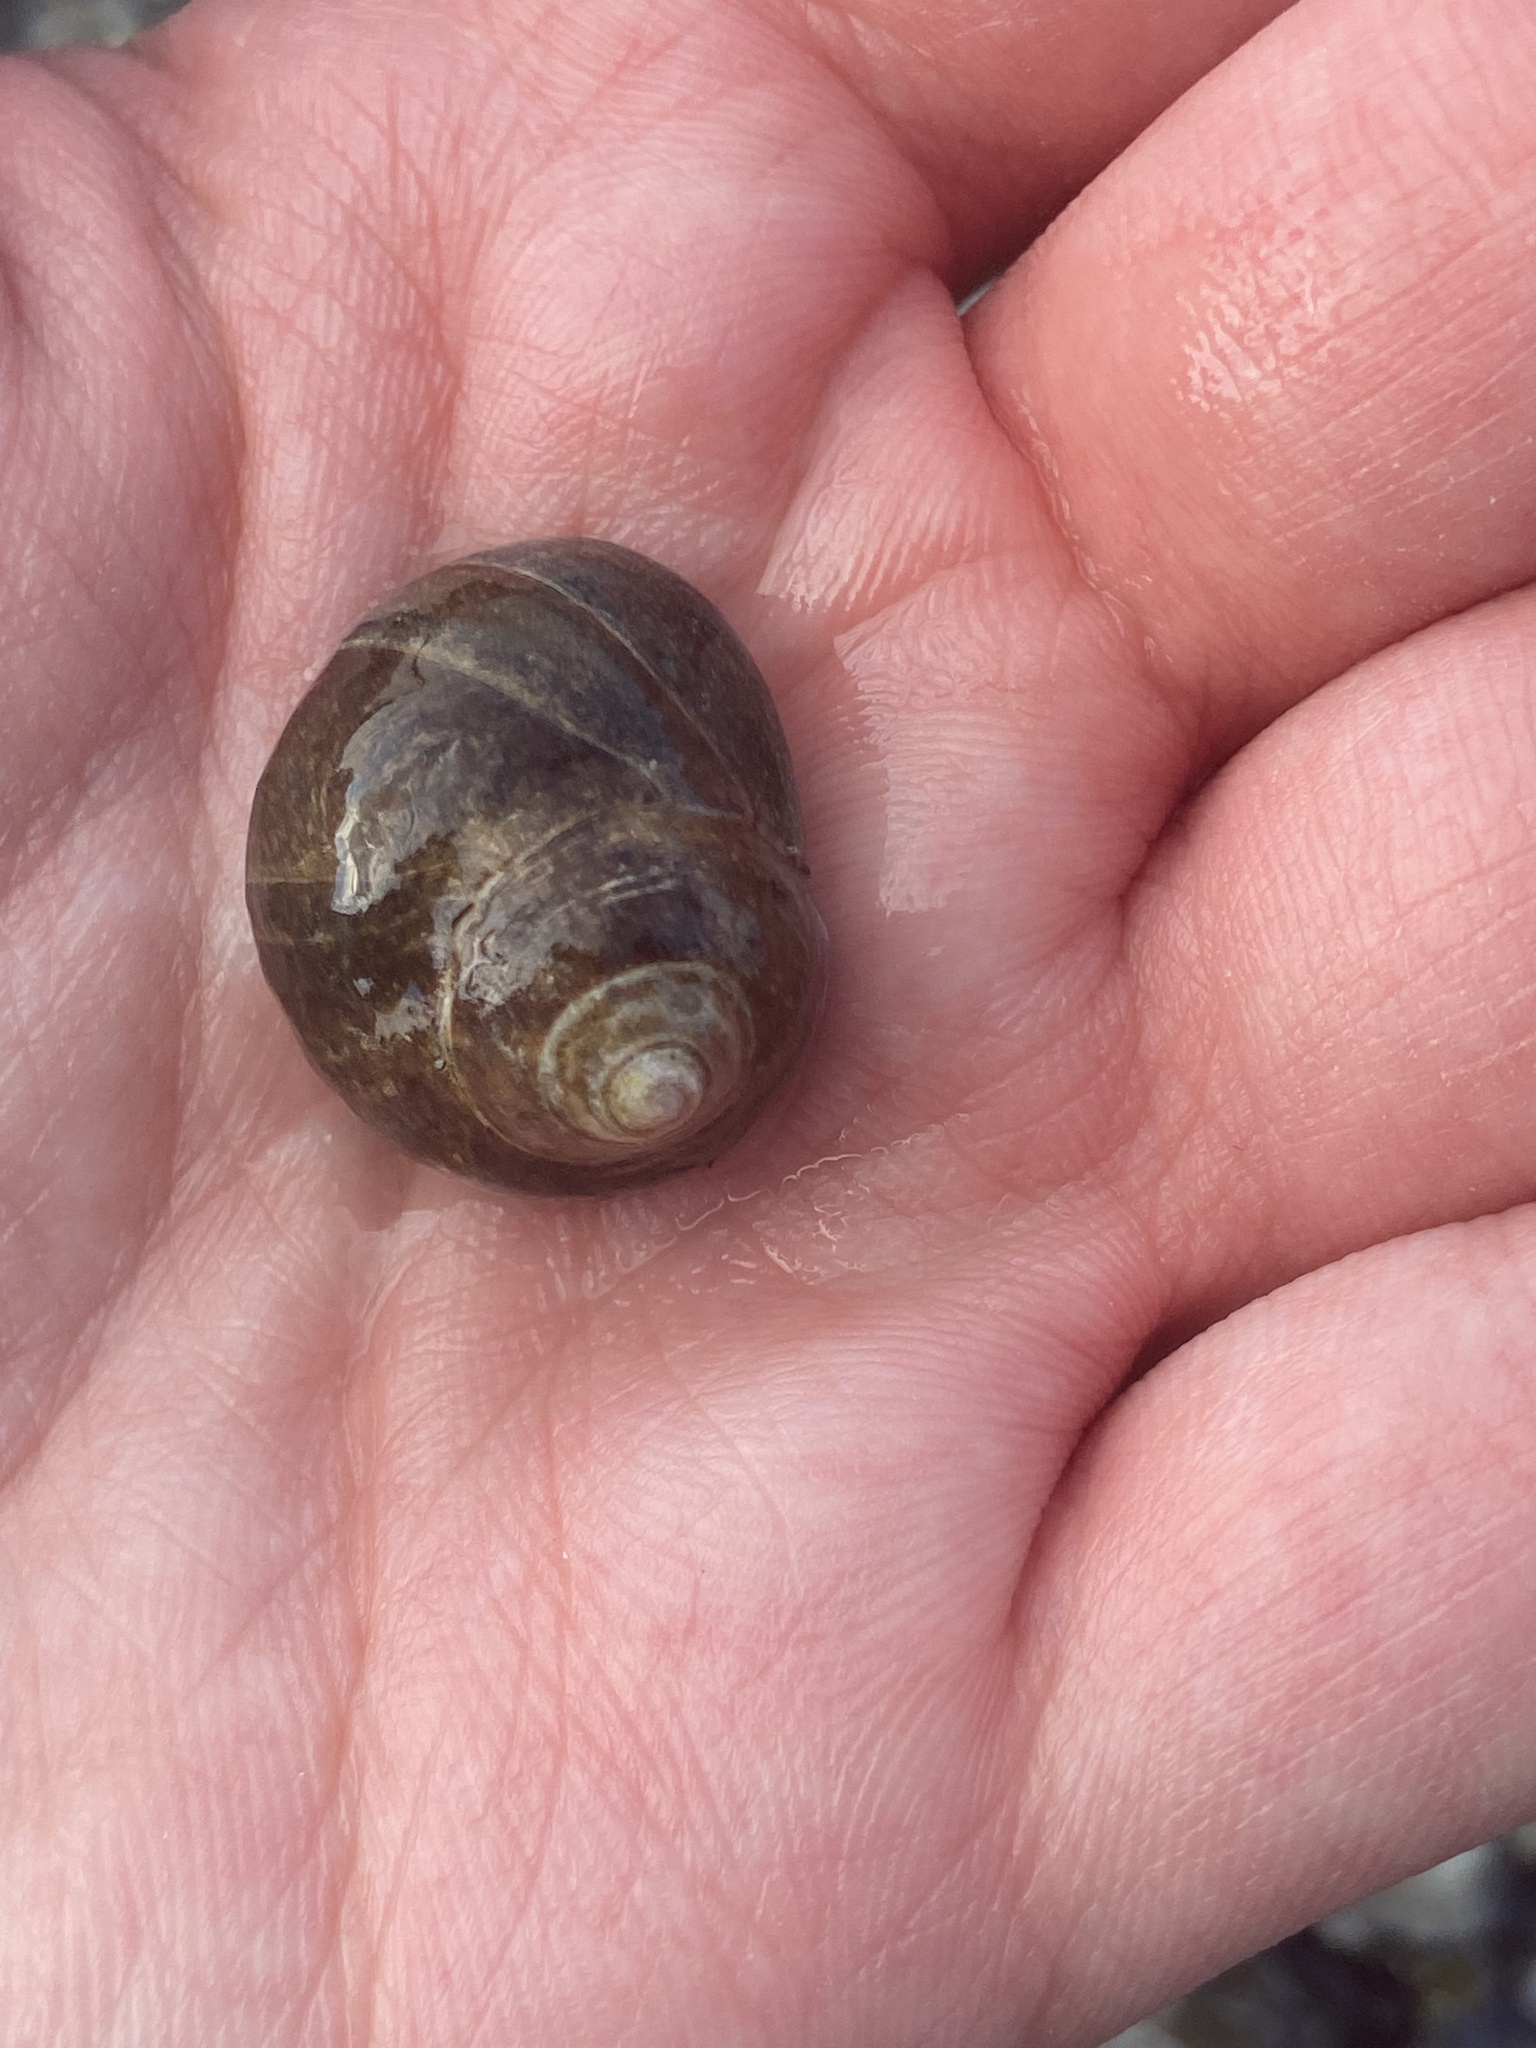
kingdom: Animalia
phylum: Mollusca
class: Gastropoda
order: Littorinimorpha
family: Littorinidae
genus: Littorina
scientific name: Littorina littorea
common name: Common periwinkle
